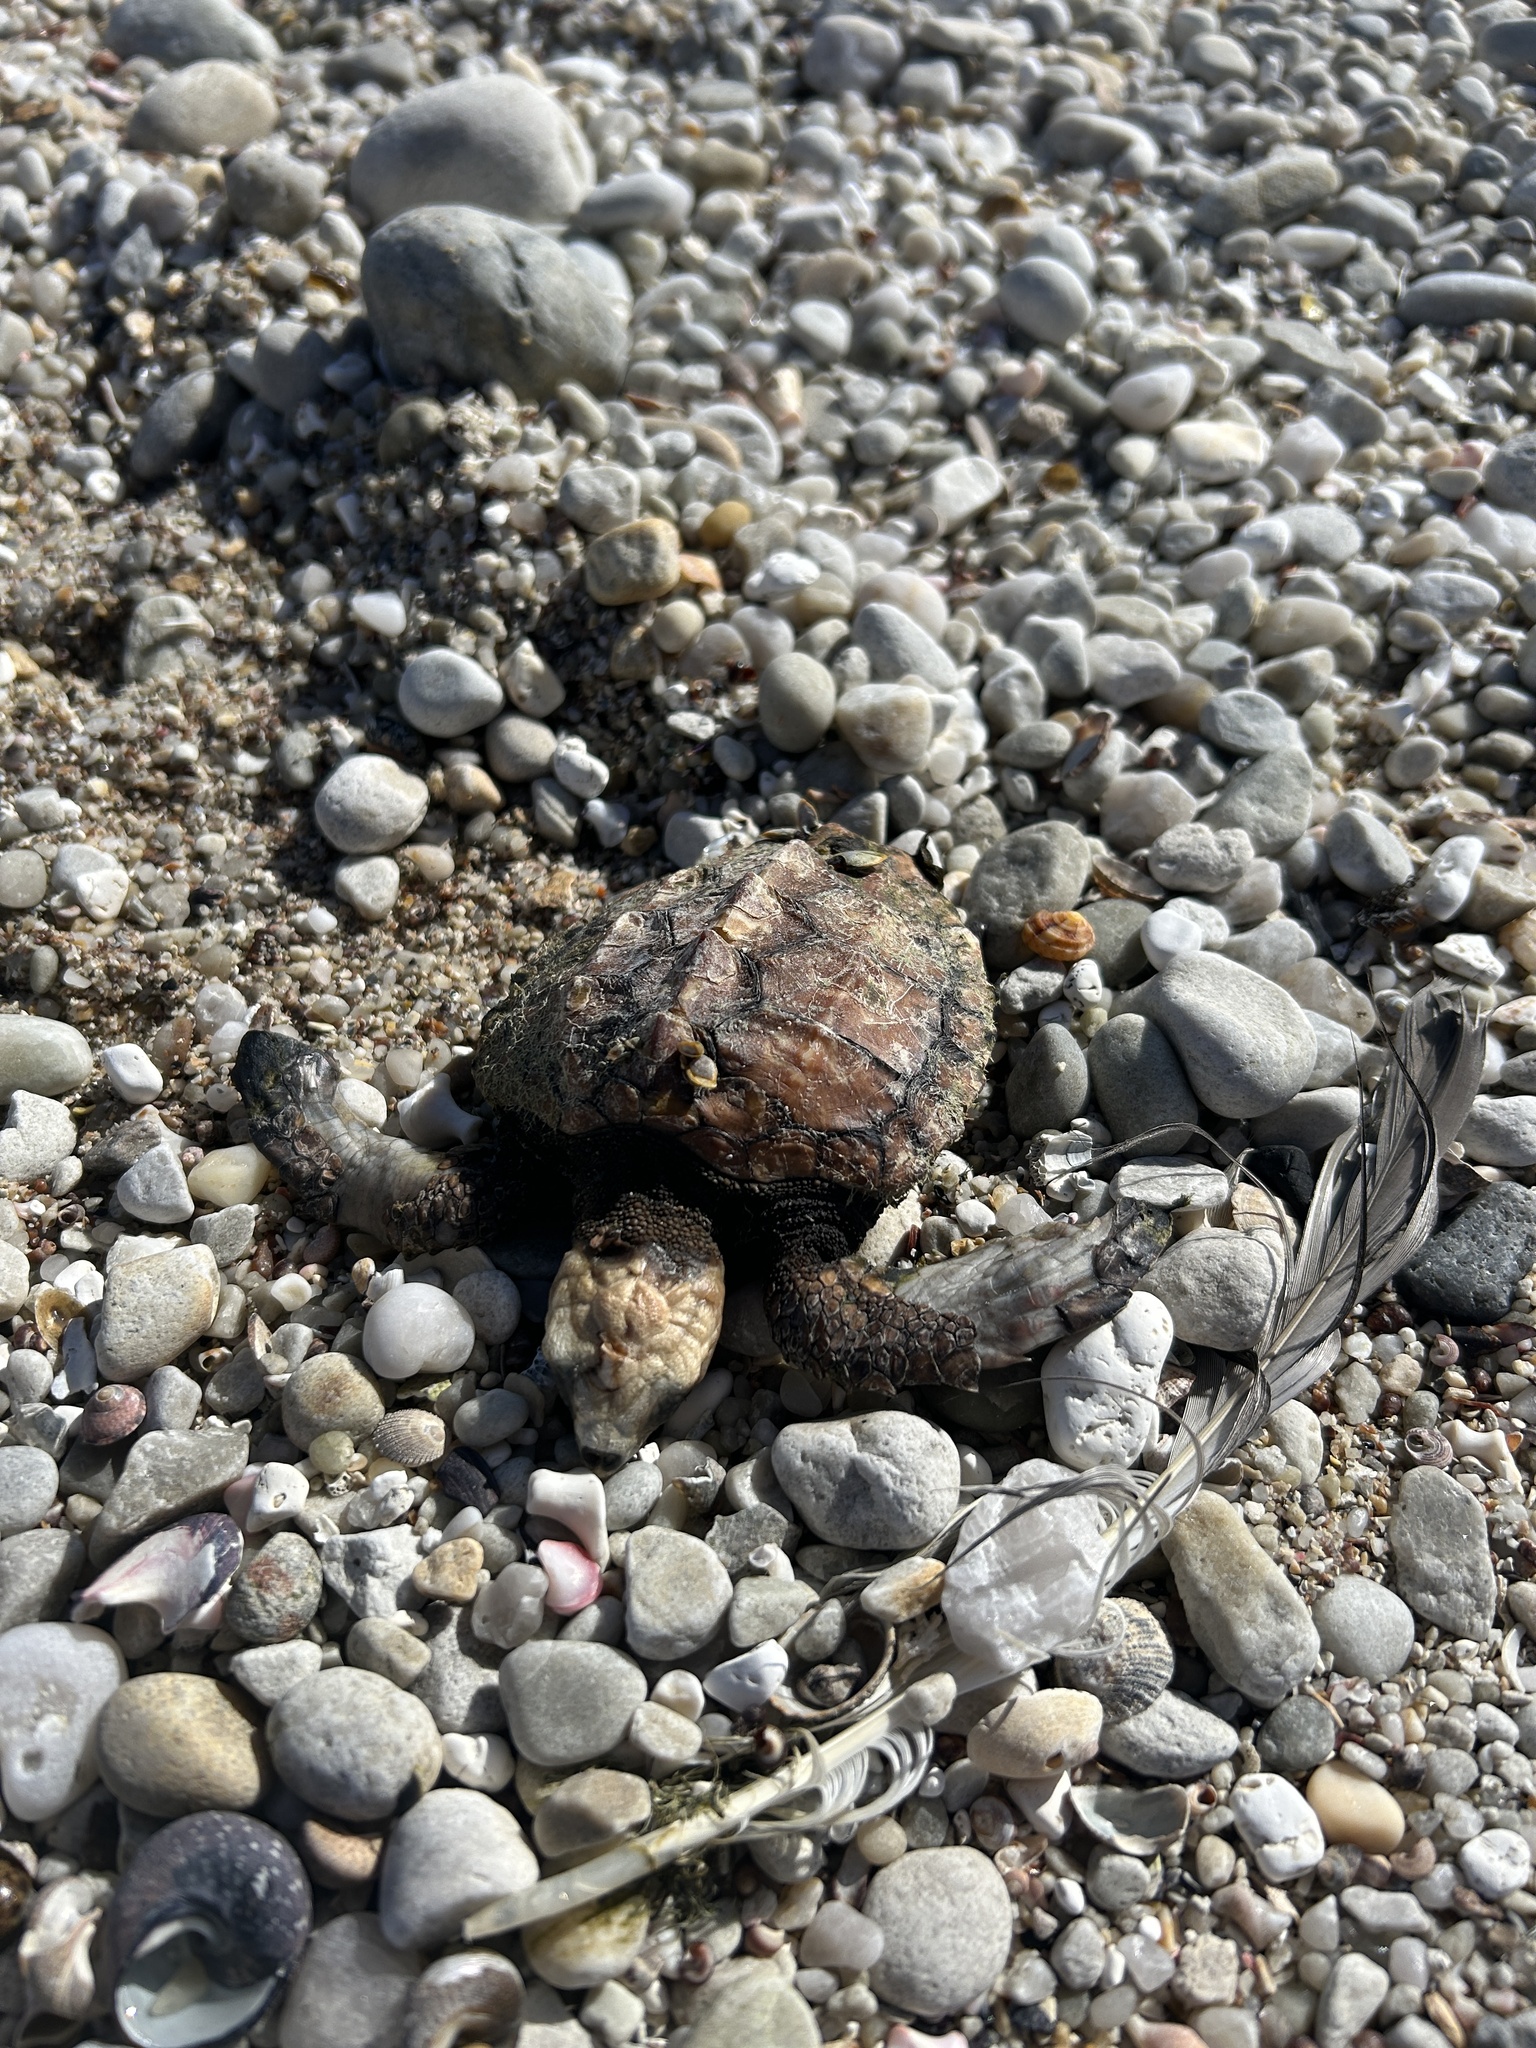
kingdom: Animalia
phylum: Chordata
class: Testudines
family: Cheloniidae
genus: Caretta
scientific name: Caretta caretta
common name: Loggerhead sea turtle
